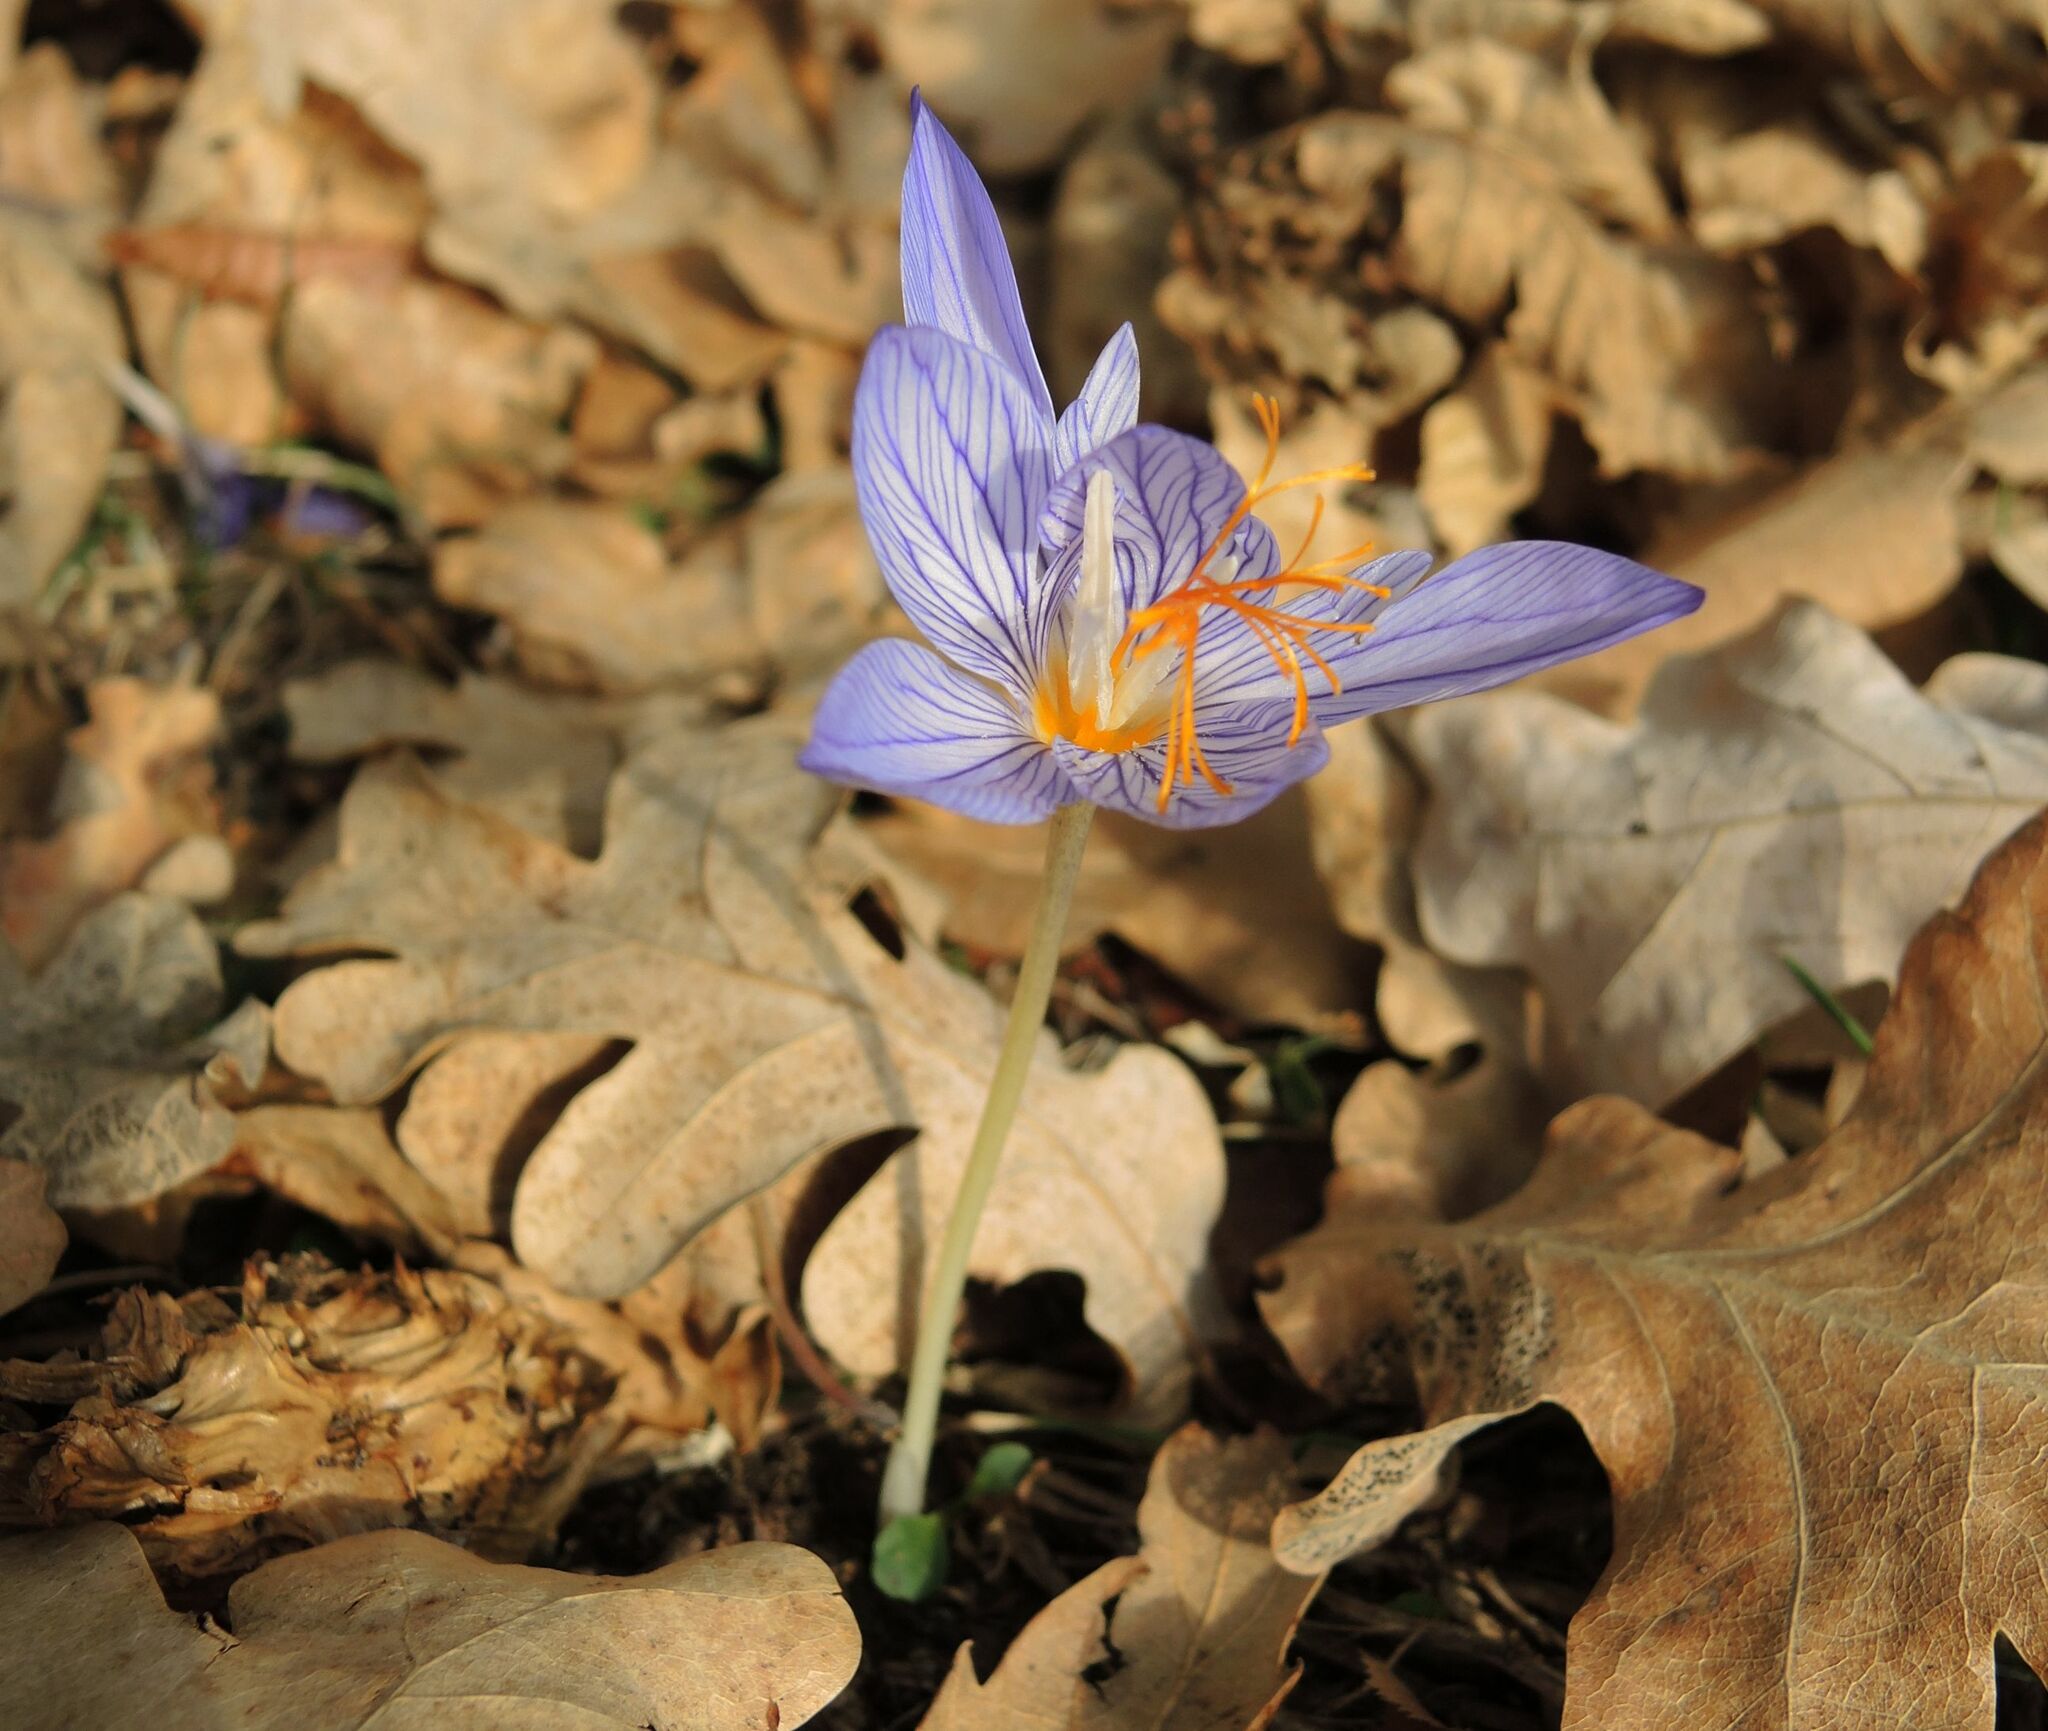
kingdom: Plantae
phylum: Tracheophyta
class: Liliopsida
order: Asparagales
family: Iridaceae
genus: Crocus
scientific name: Crocus ibrahimii
